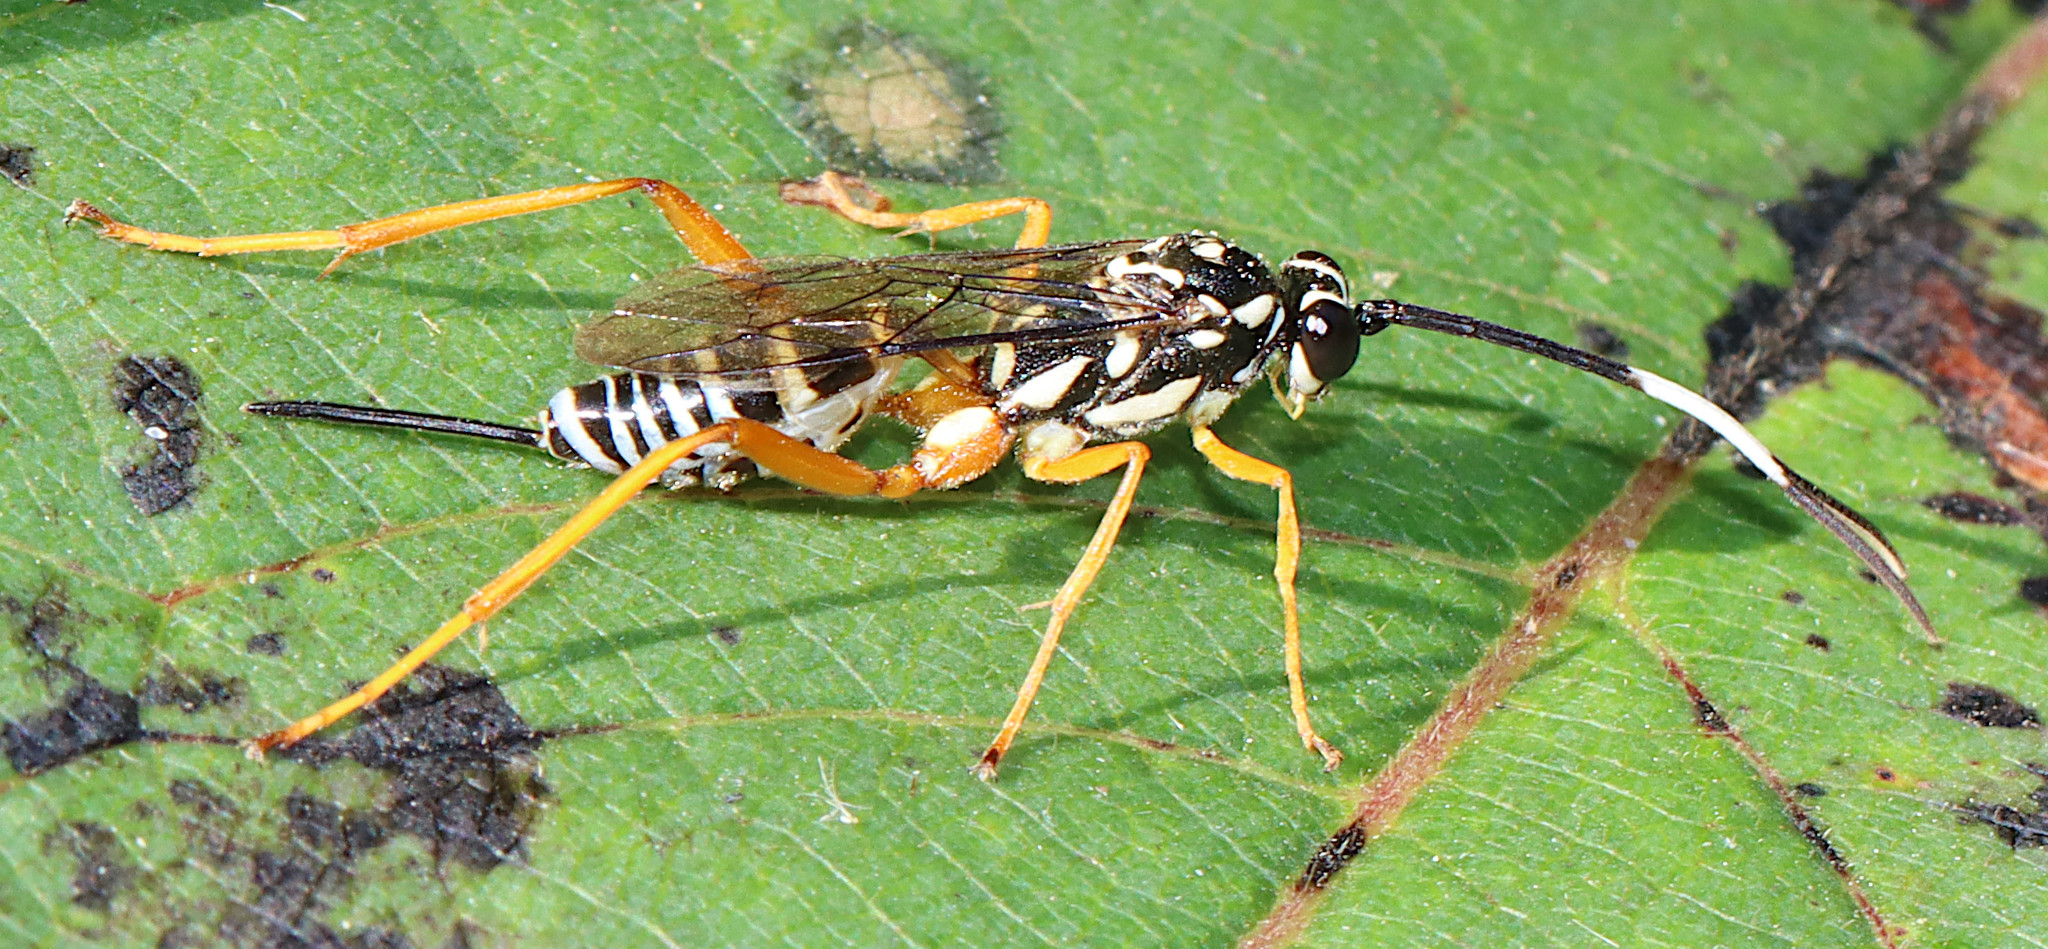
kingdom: Animalia
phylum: Arthropoda
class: Insecta
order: Hymenoptera
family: Ichneumonidae
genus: Cryptanura
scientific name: Cryptanura spinaria
